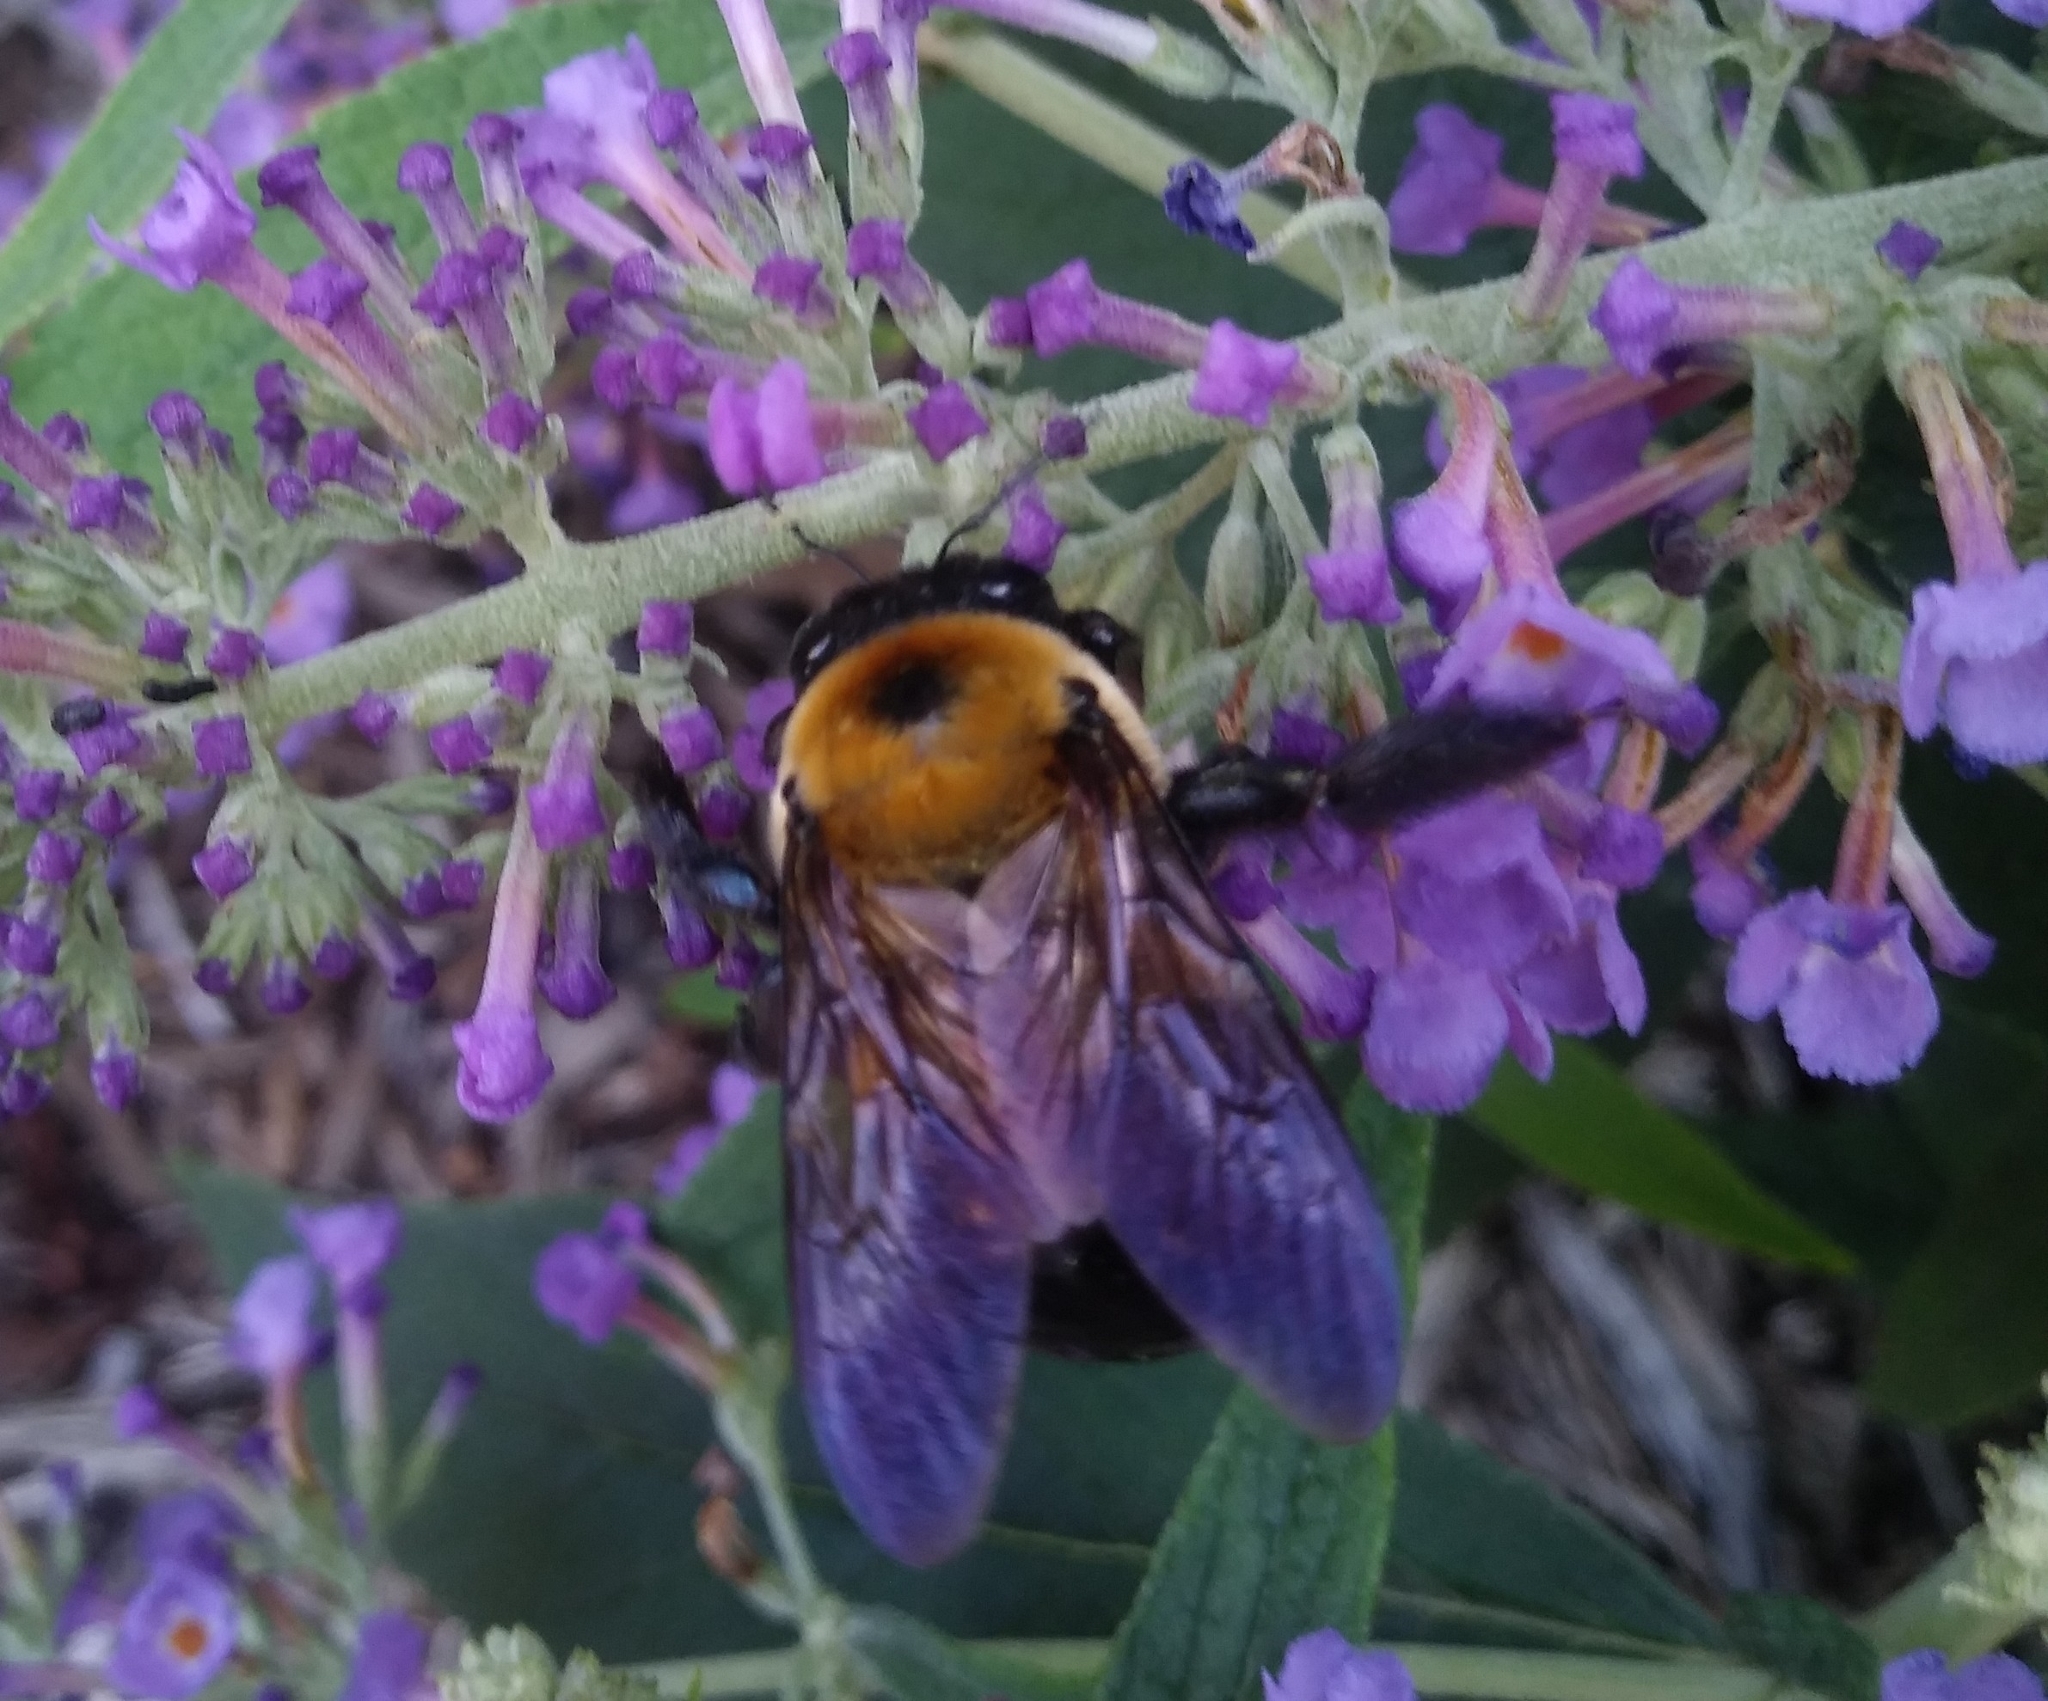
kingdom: Animalia
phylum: Arthropoda
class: Insecta
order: Hymenoptera
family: Apidae
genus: Xylocopa
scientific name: Xylocopa virginica
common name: Carpenter bee
